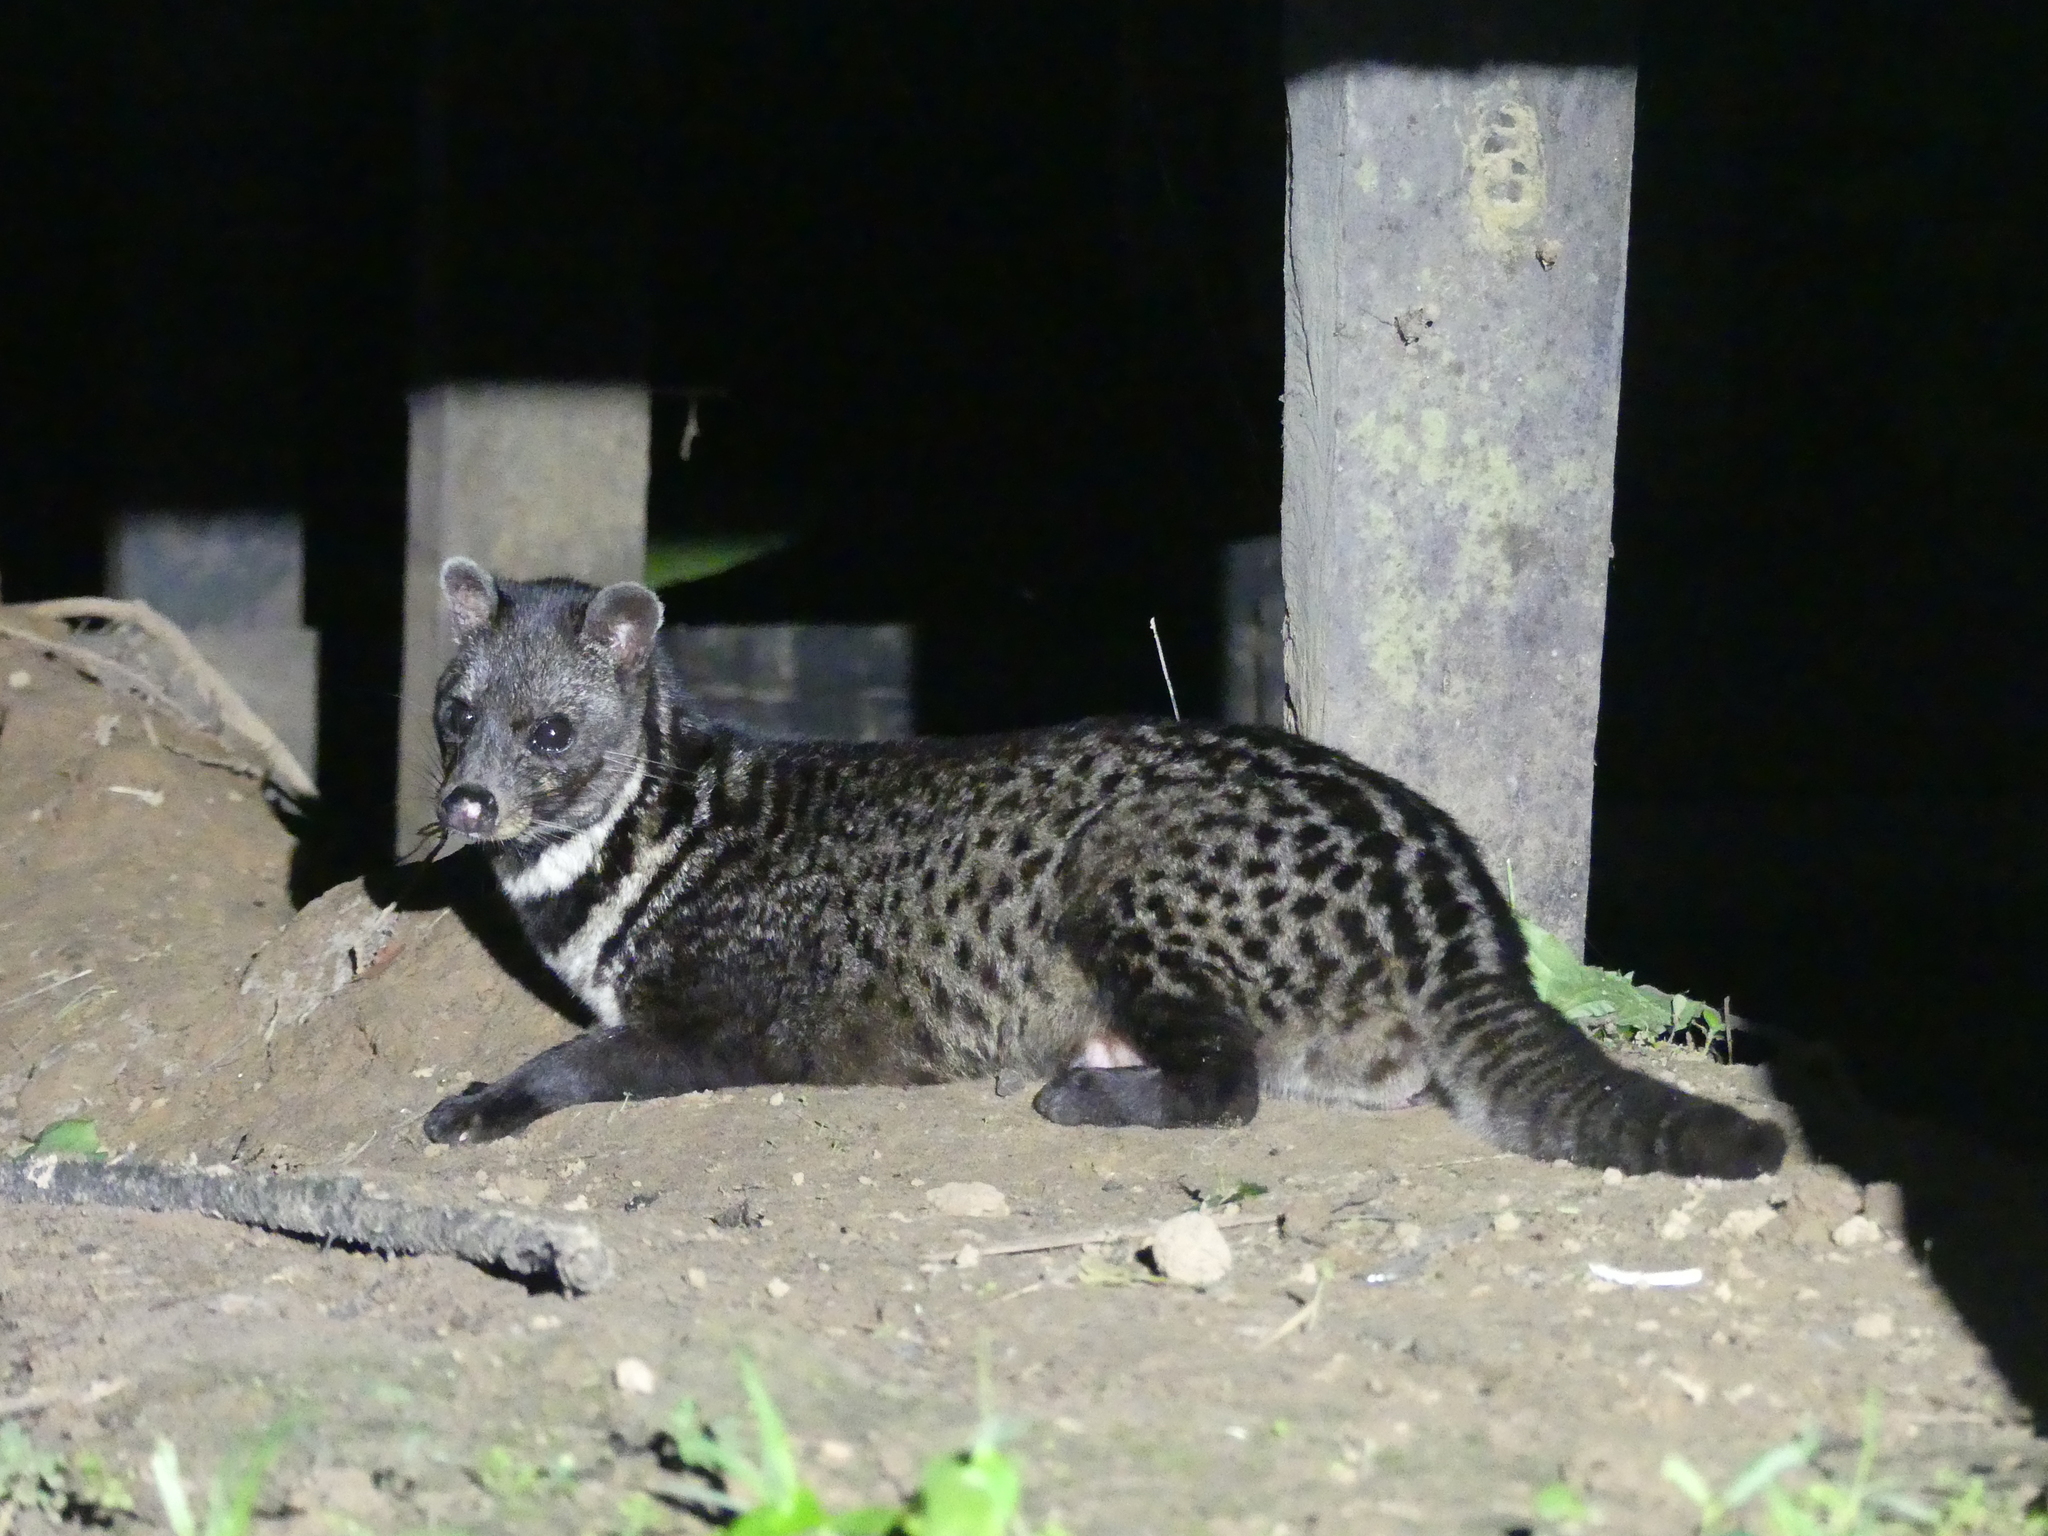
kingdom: Animalia
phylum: Chordata
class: Mammalia
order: Carnivora
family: Viverridae
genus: Viverra
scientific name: Viverra tangalunga
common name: Malayan civet
